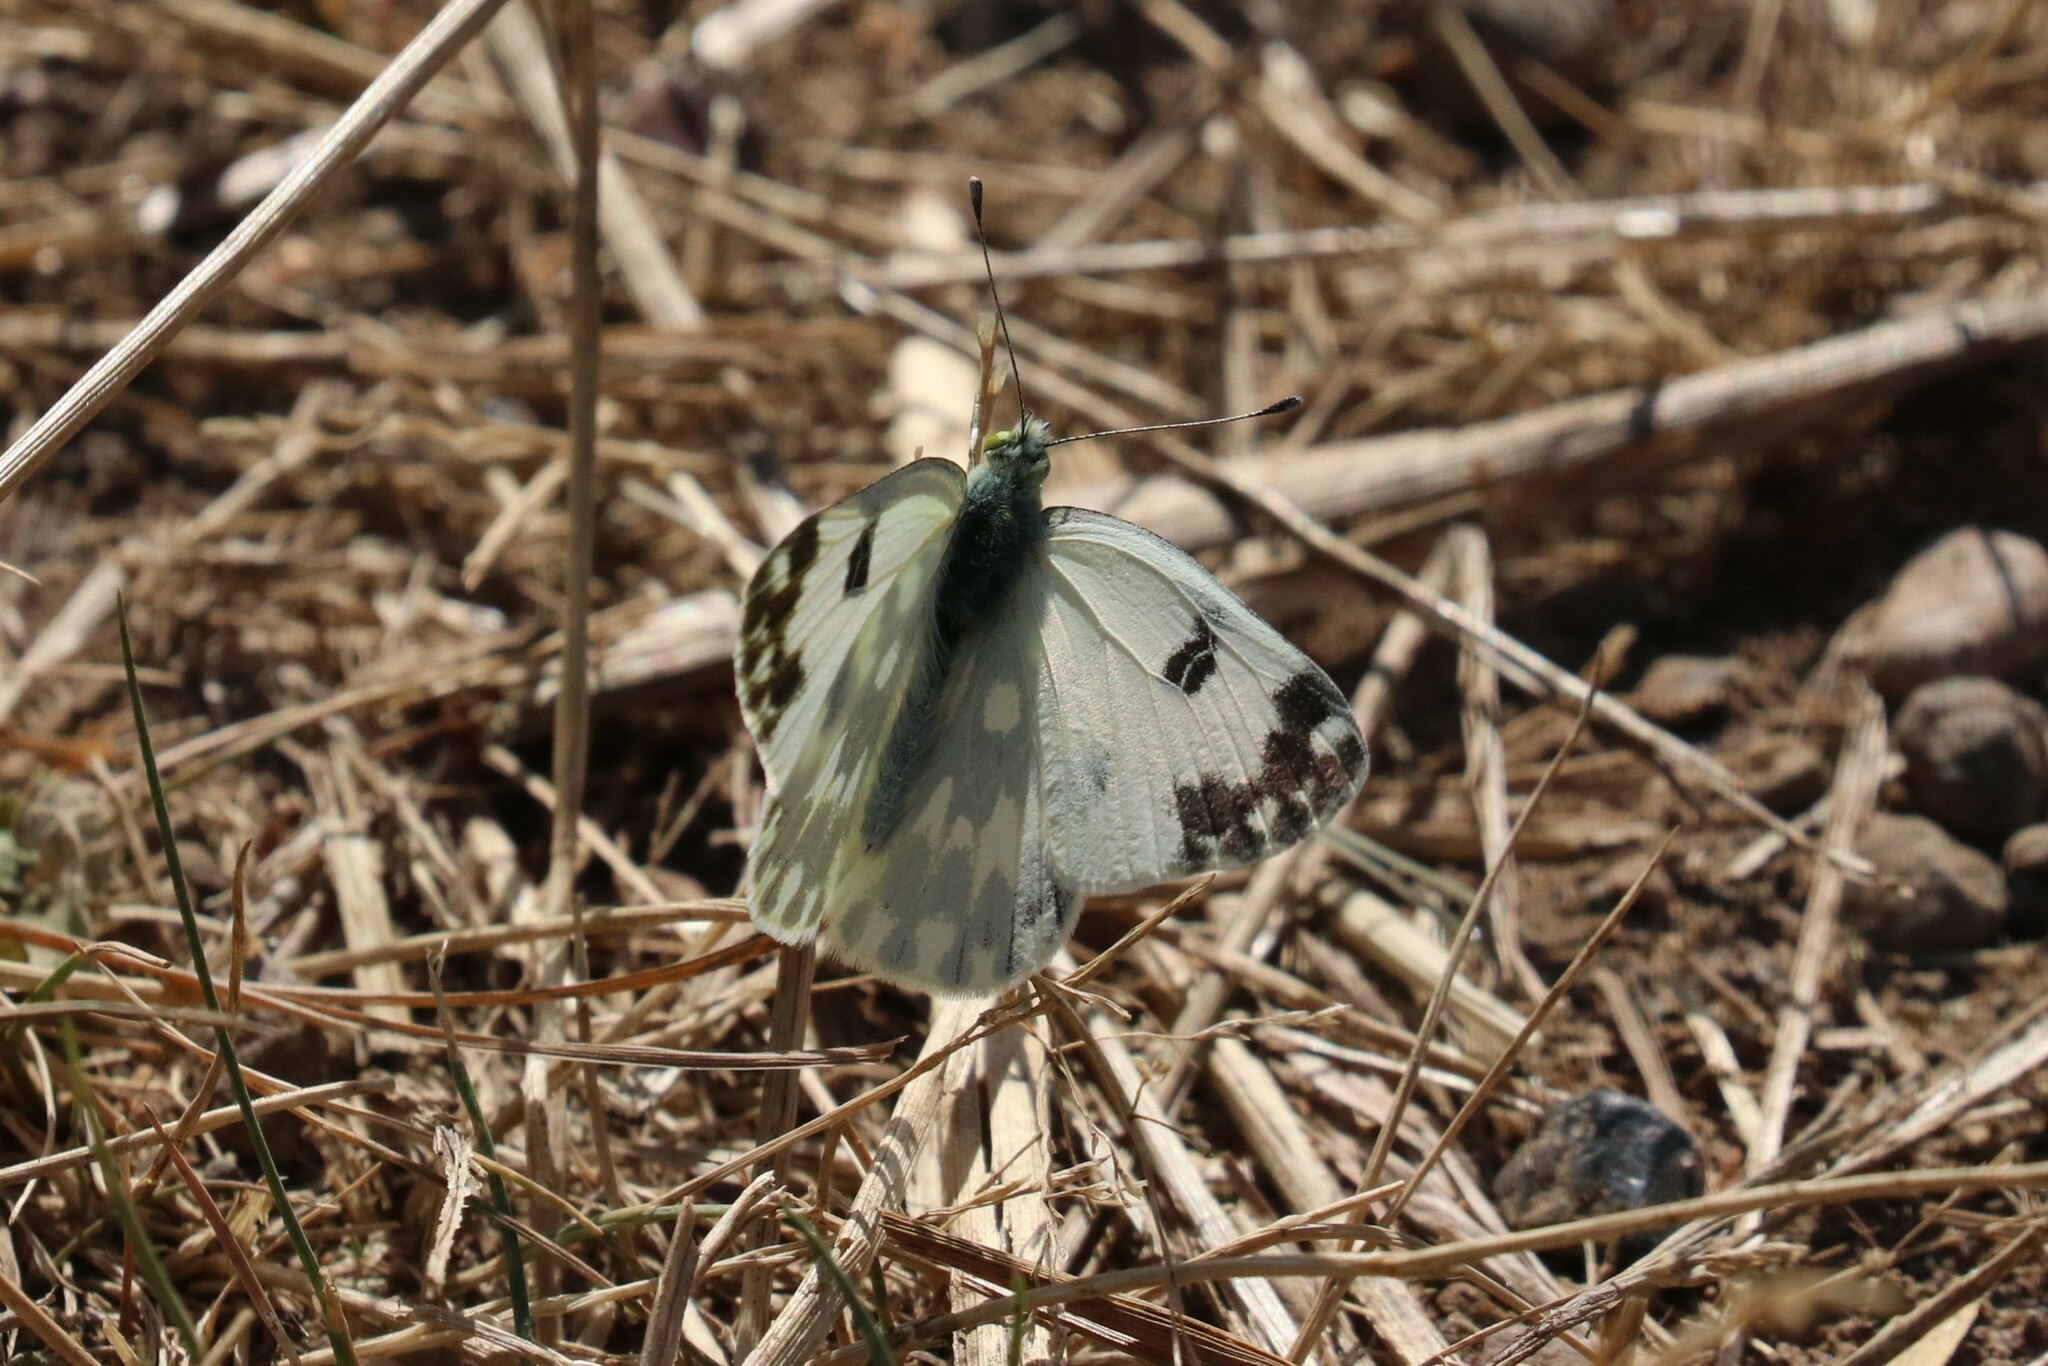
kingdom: Animalia
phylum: Arthropoda
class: Insecta
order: Lepidoptera
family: Pieridae
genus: Pontia
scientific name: Pontia edusa
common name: Eastern bath white
